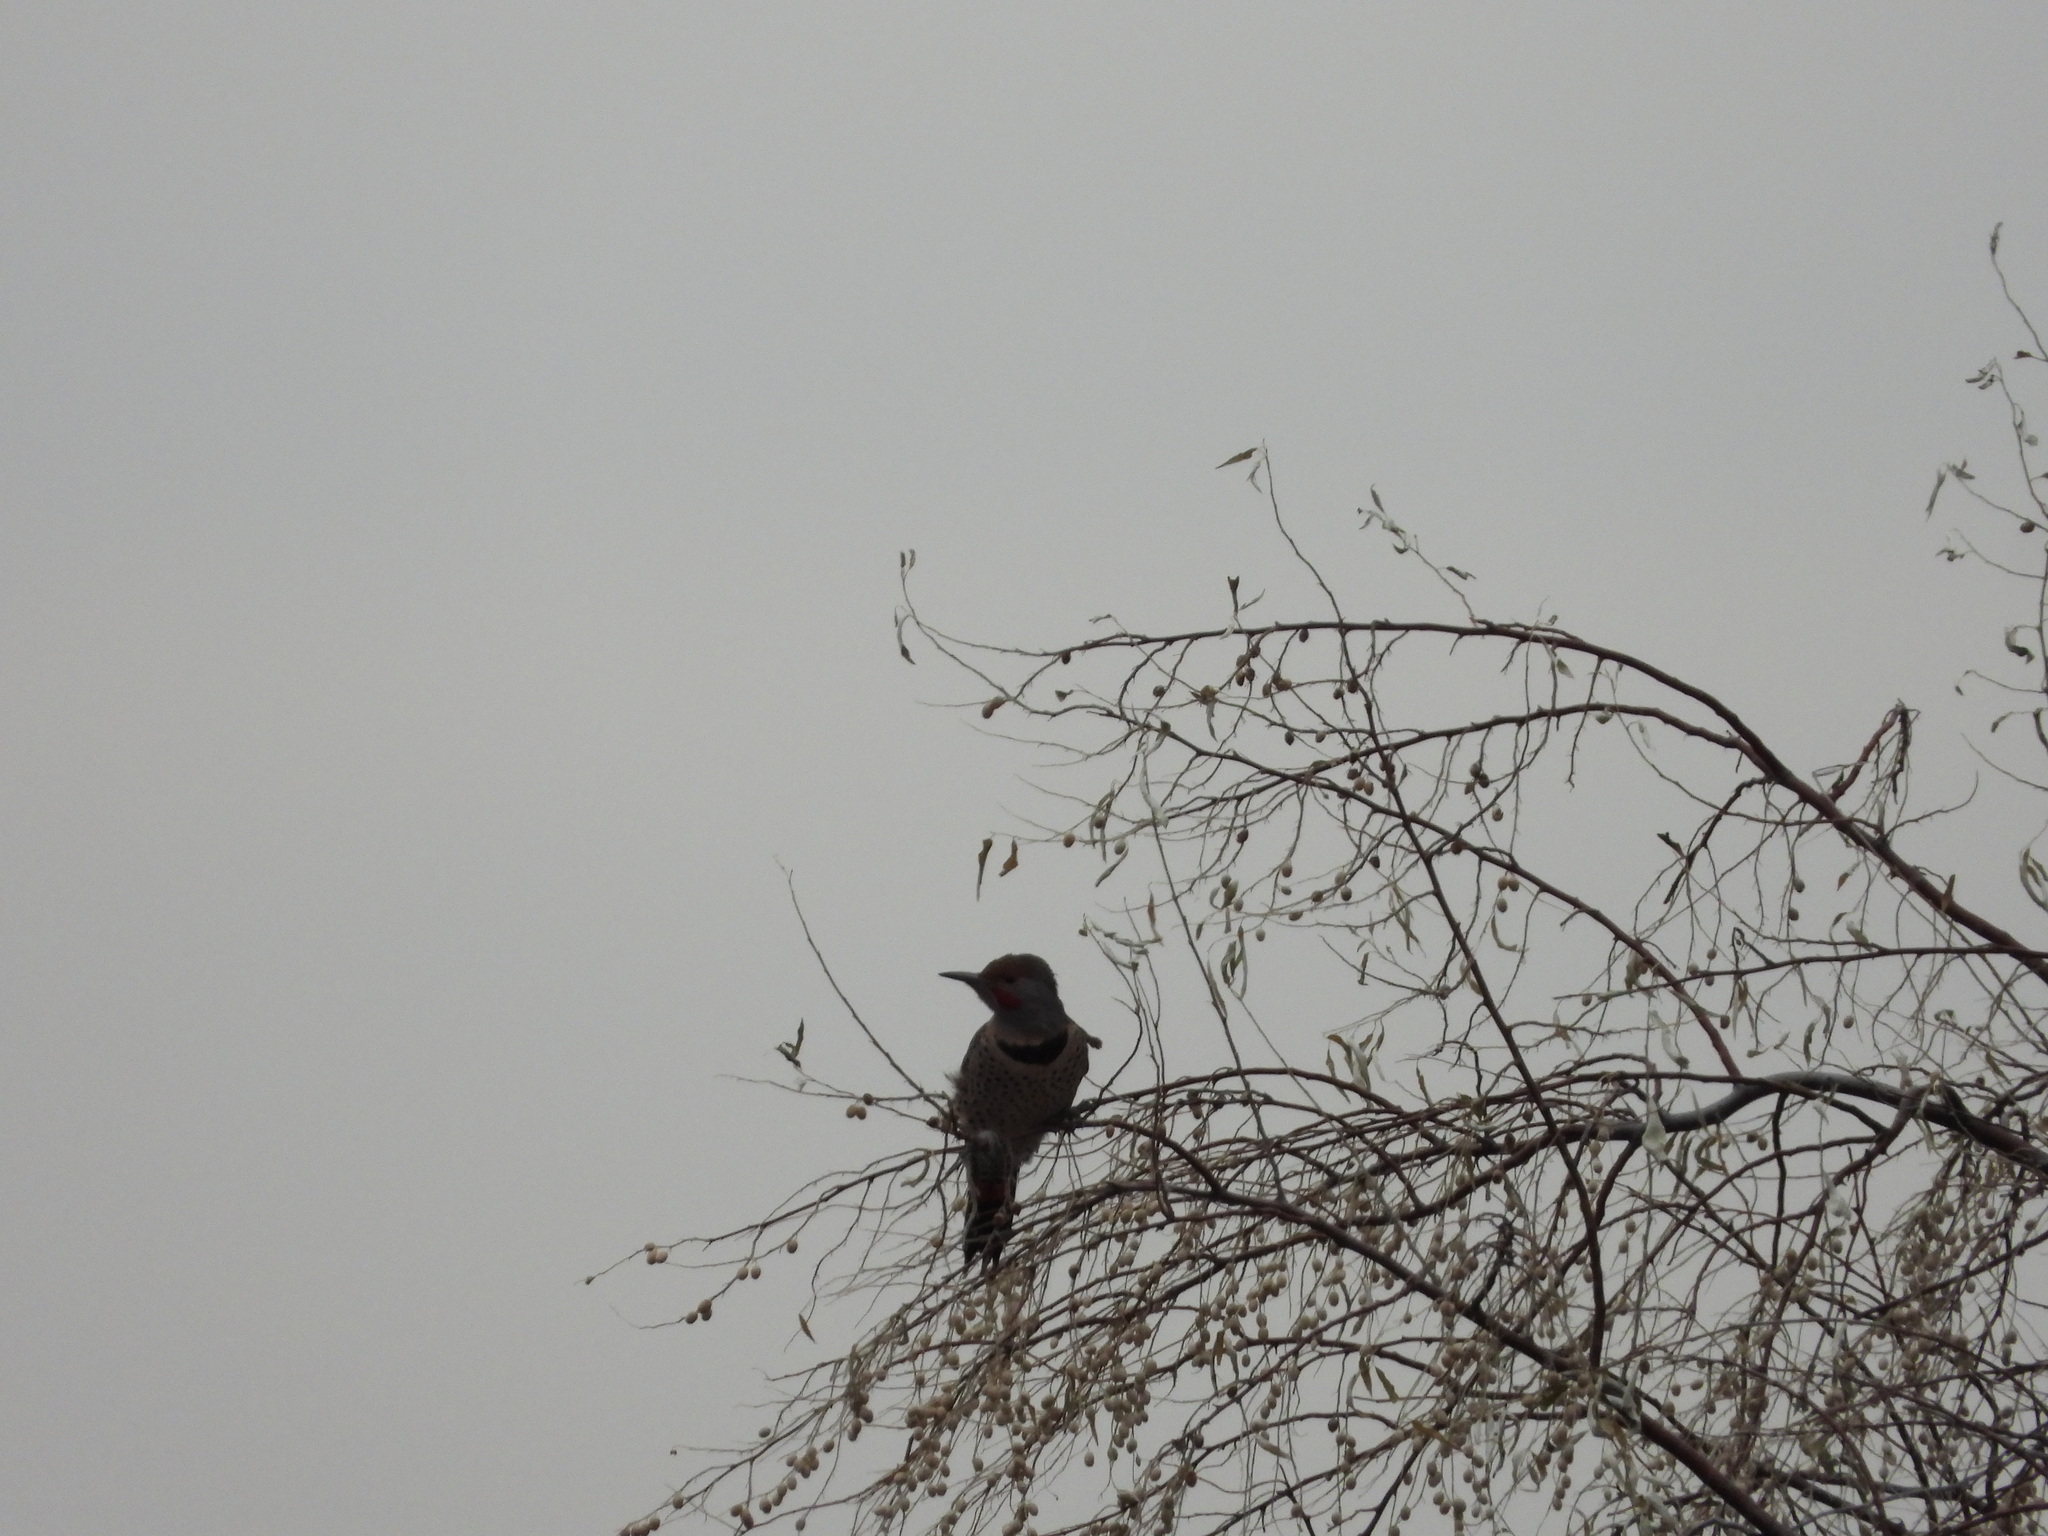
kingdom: Animalia
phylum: Chordata
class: Aves
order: Piciformes
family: Picidae
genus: Colaptes
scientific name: Colaptes auratus
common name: Northern flicker
